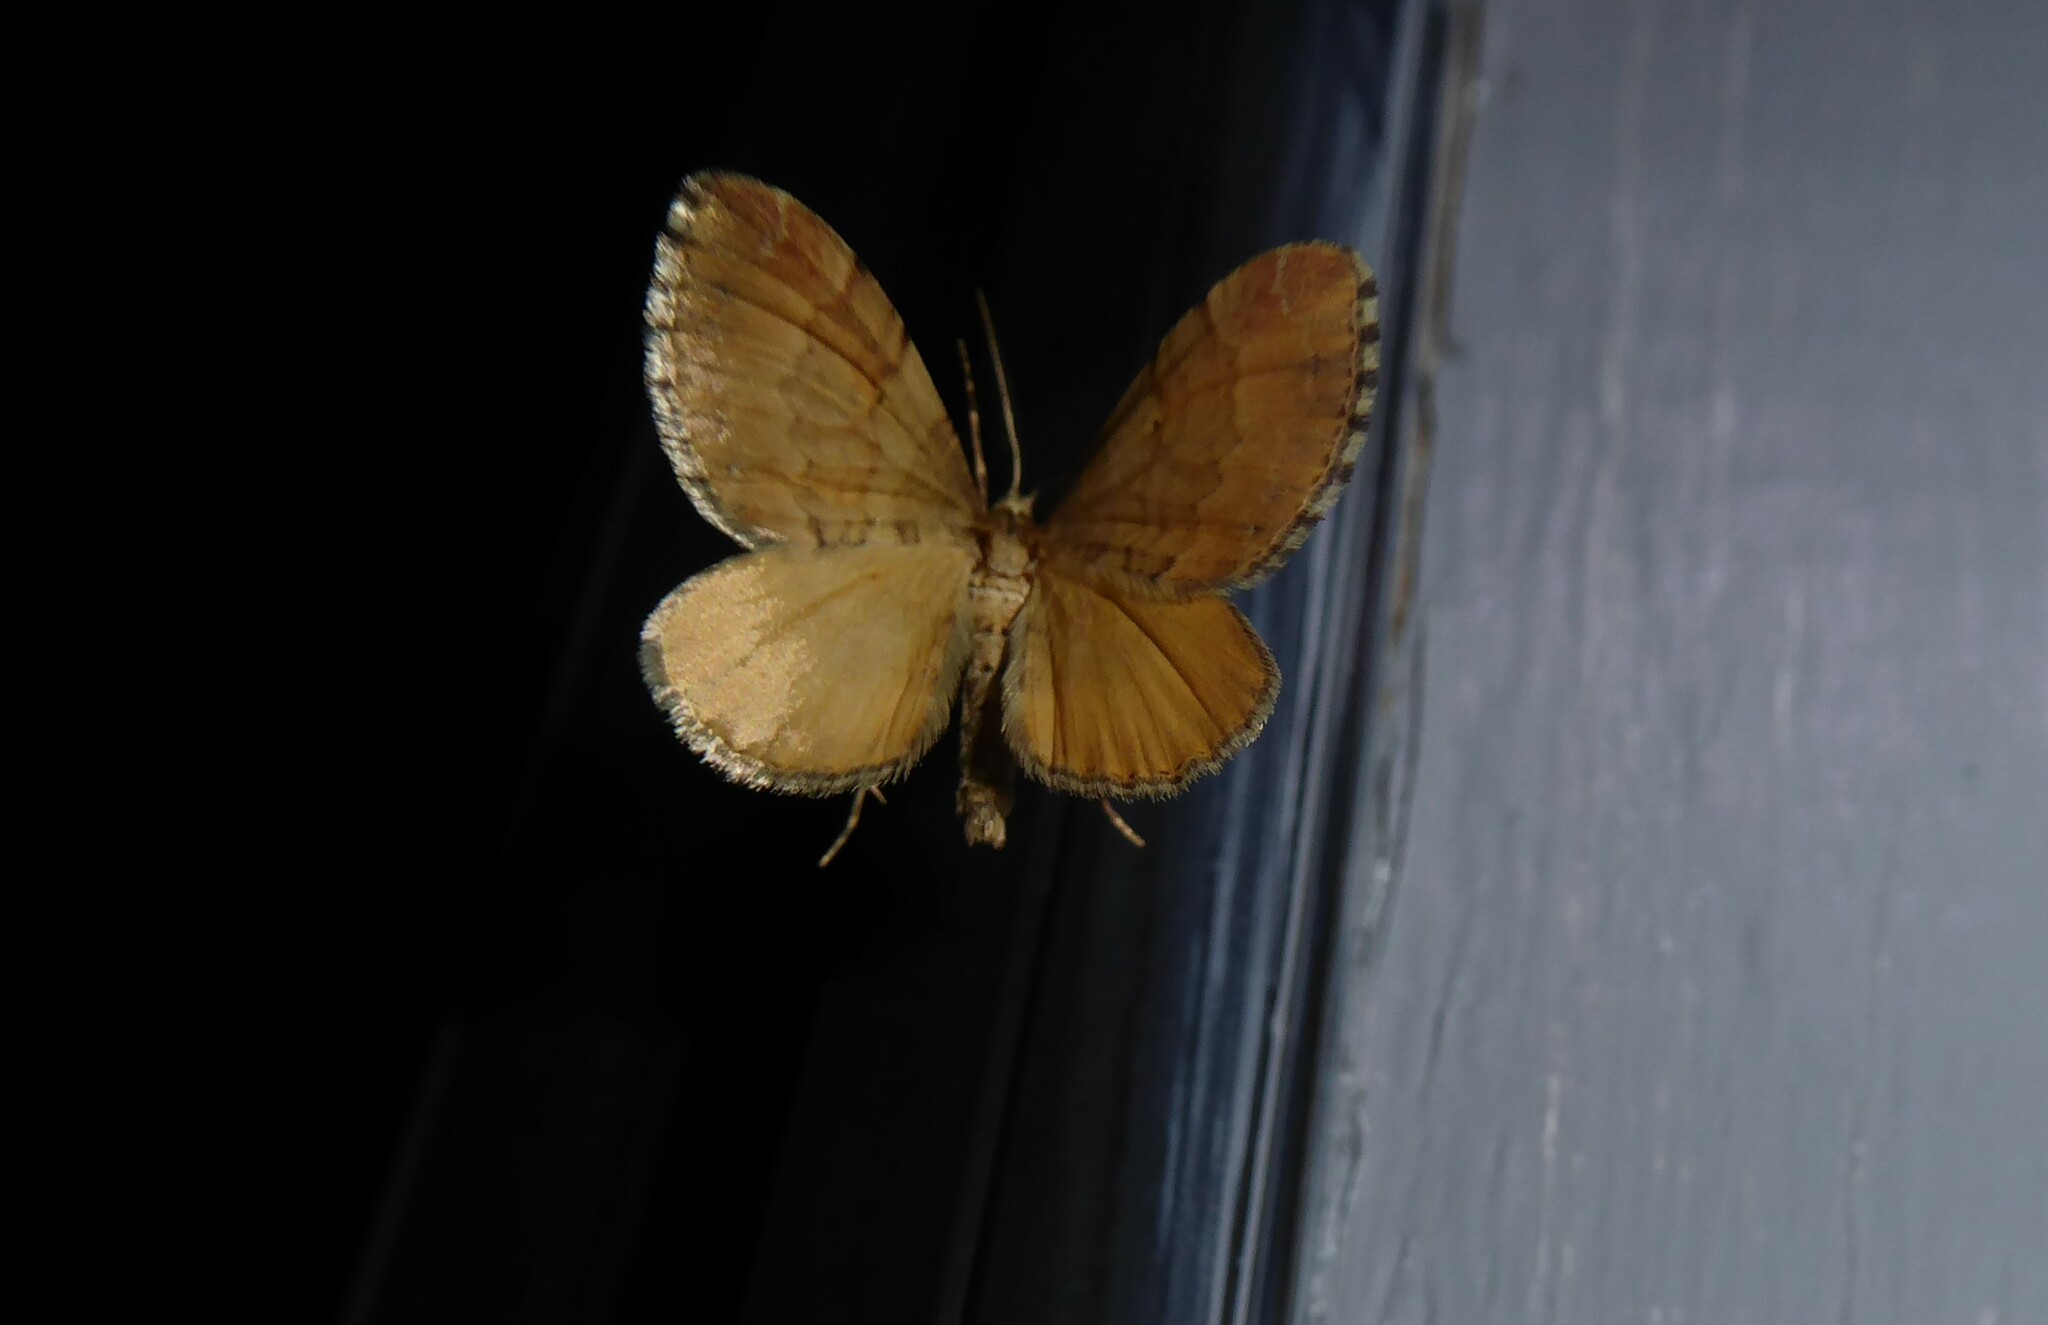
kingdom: Animalia
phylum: Arthropoda
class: Insecta
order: Lepidoptera
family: Geometridae
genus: Asaphodes
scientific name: Asaphodes aegrota
